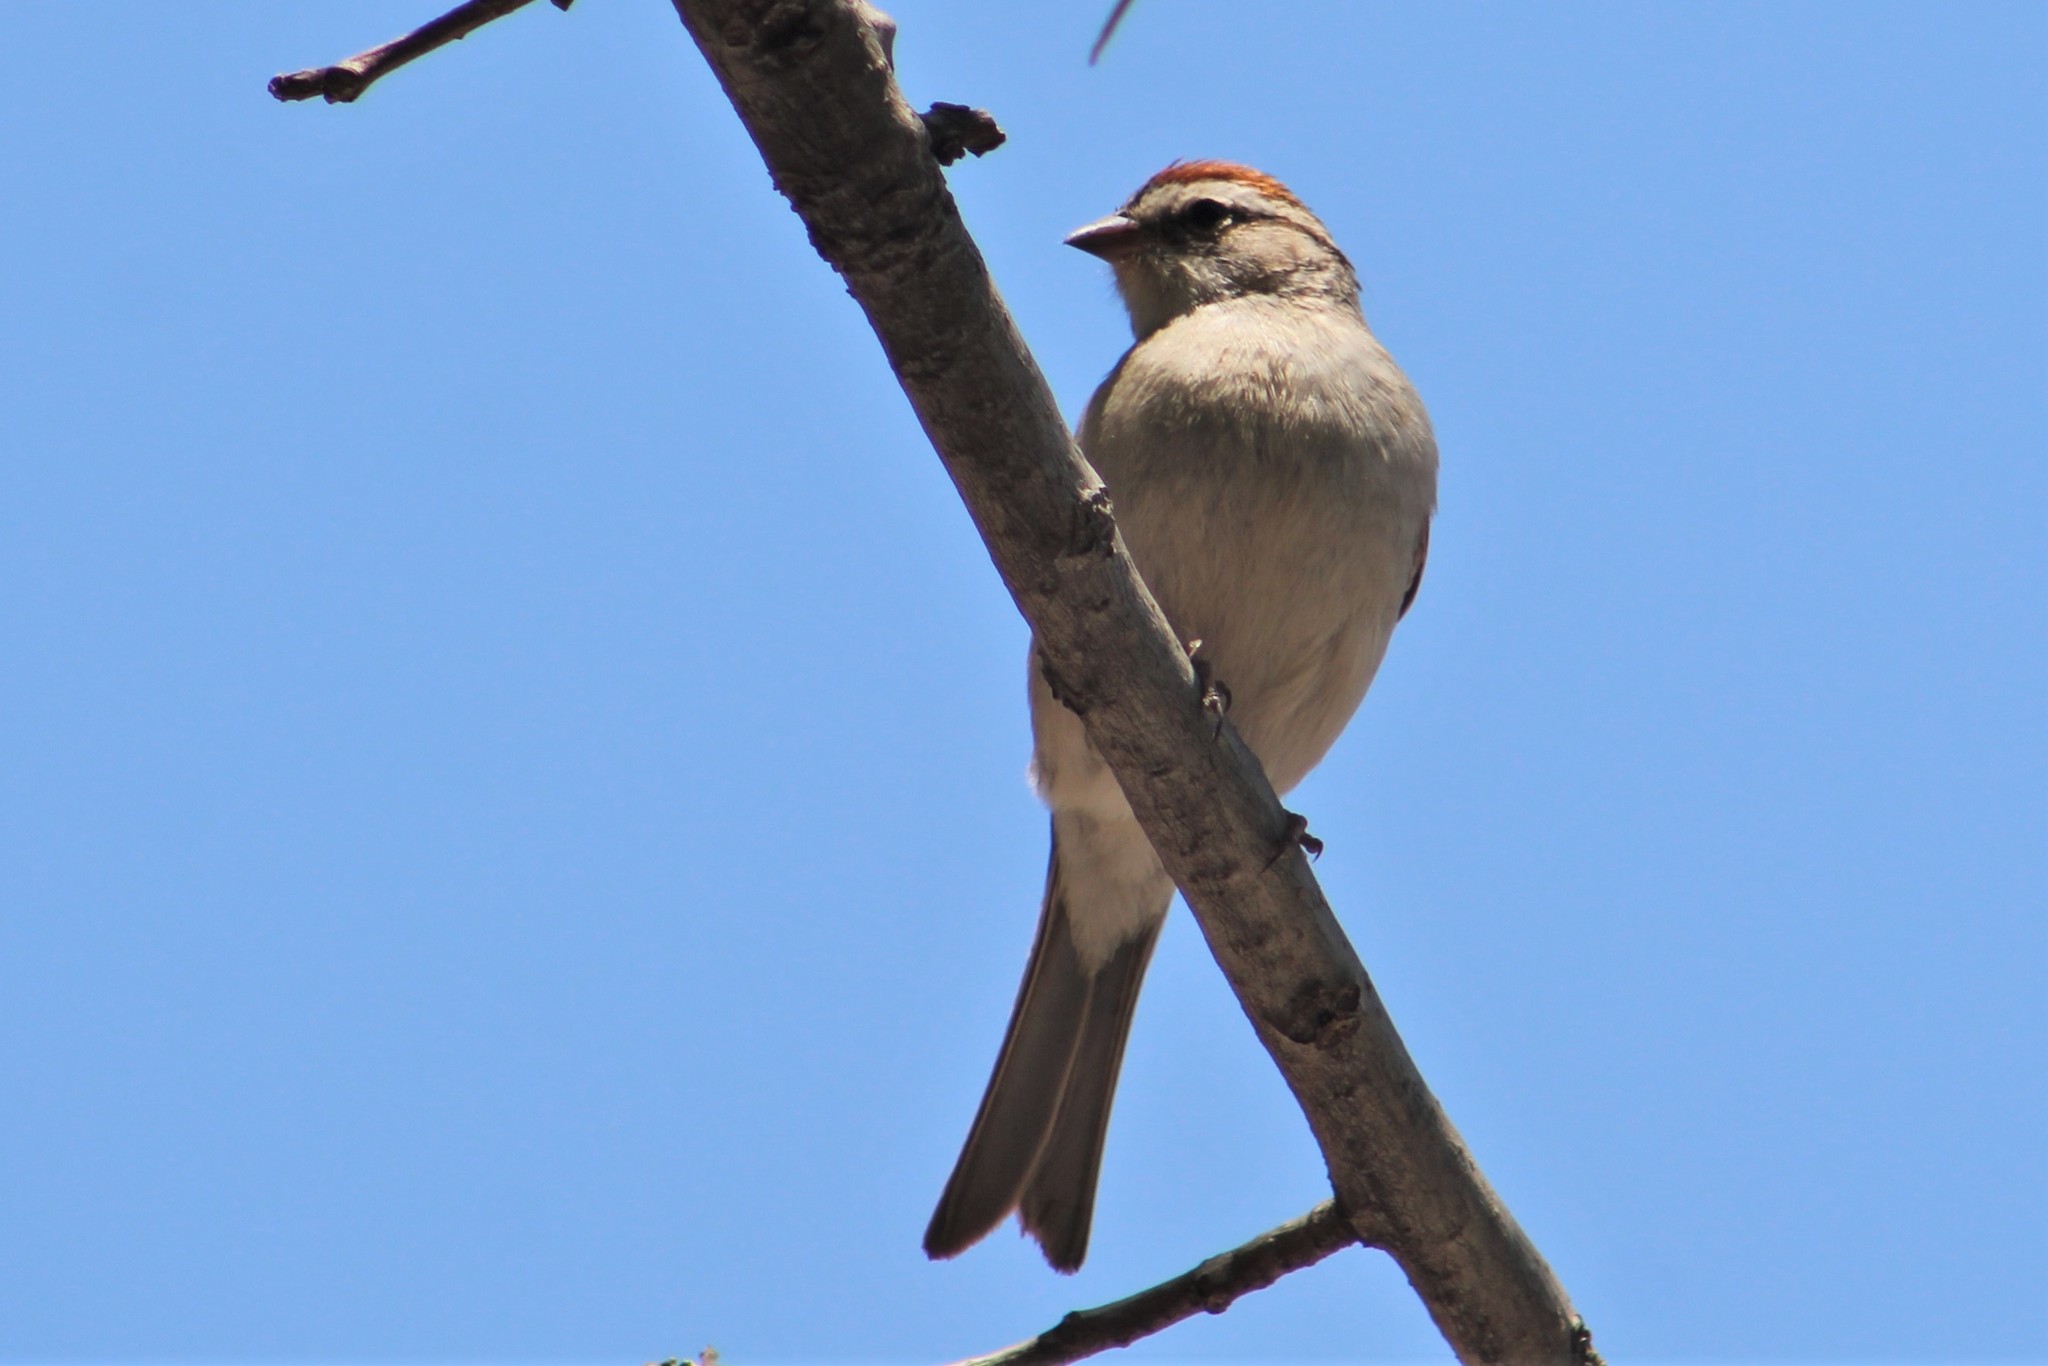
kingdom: Animalia
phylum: Chordata
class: Aves
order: Passeriformes
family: Passerellidae
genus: Spizella
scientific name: Spizella passerina
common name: Chipping sparrow
